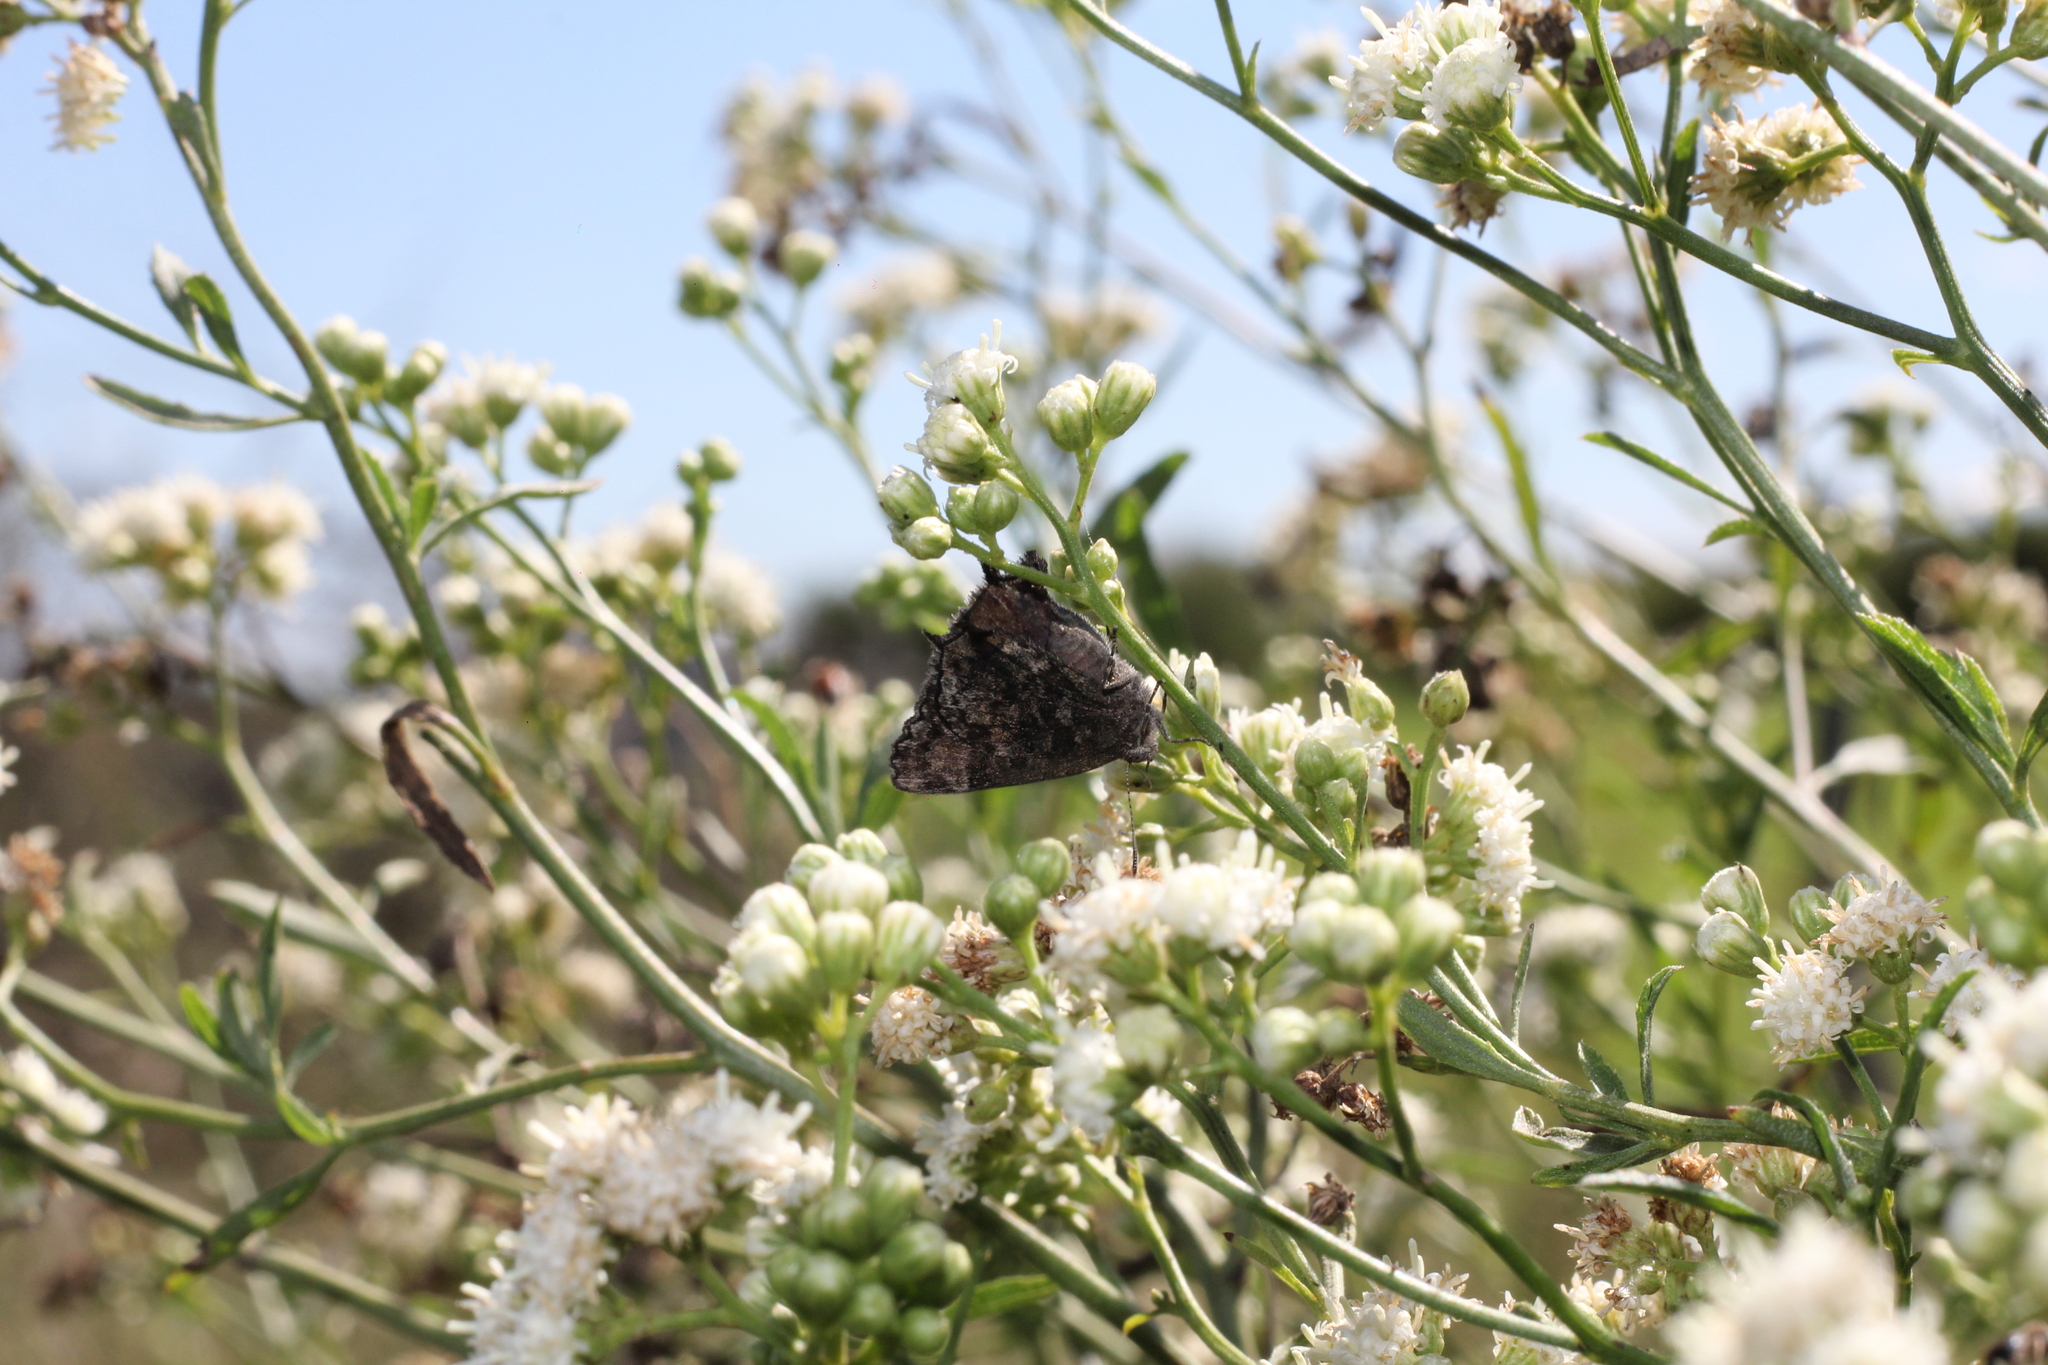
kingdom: Animalia
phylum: Arthropoda
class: Insecta
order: Lepidoptera
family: Lycaenidae
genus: Thereus
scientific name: Thereus
